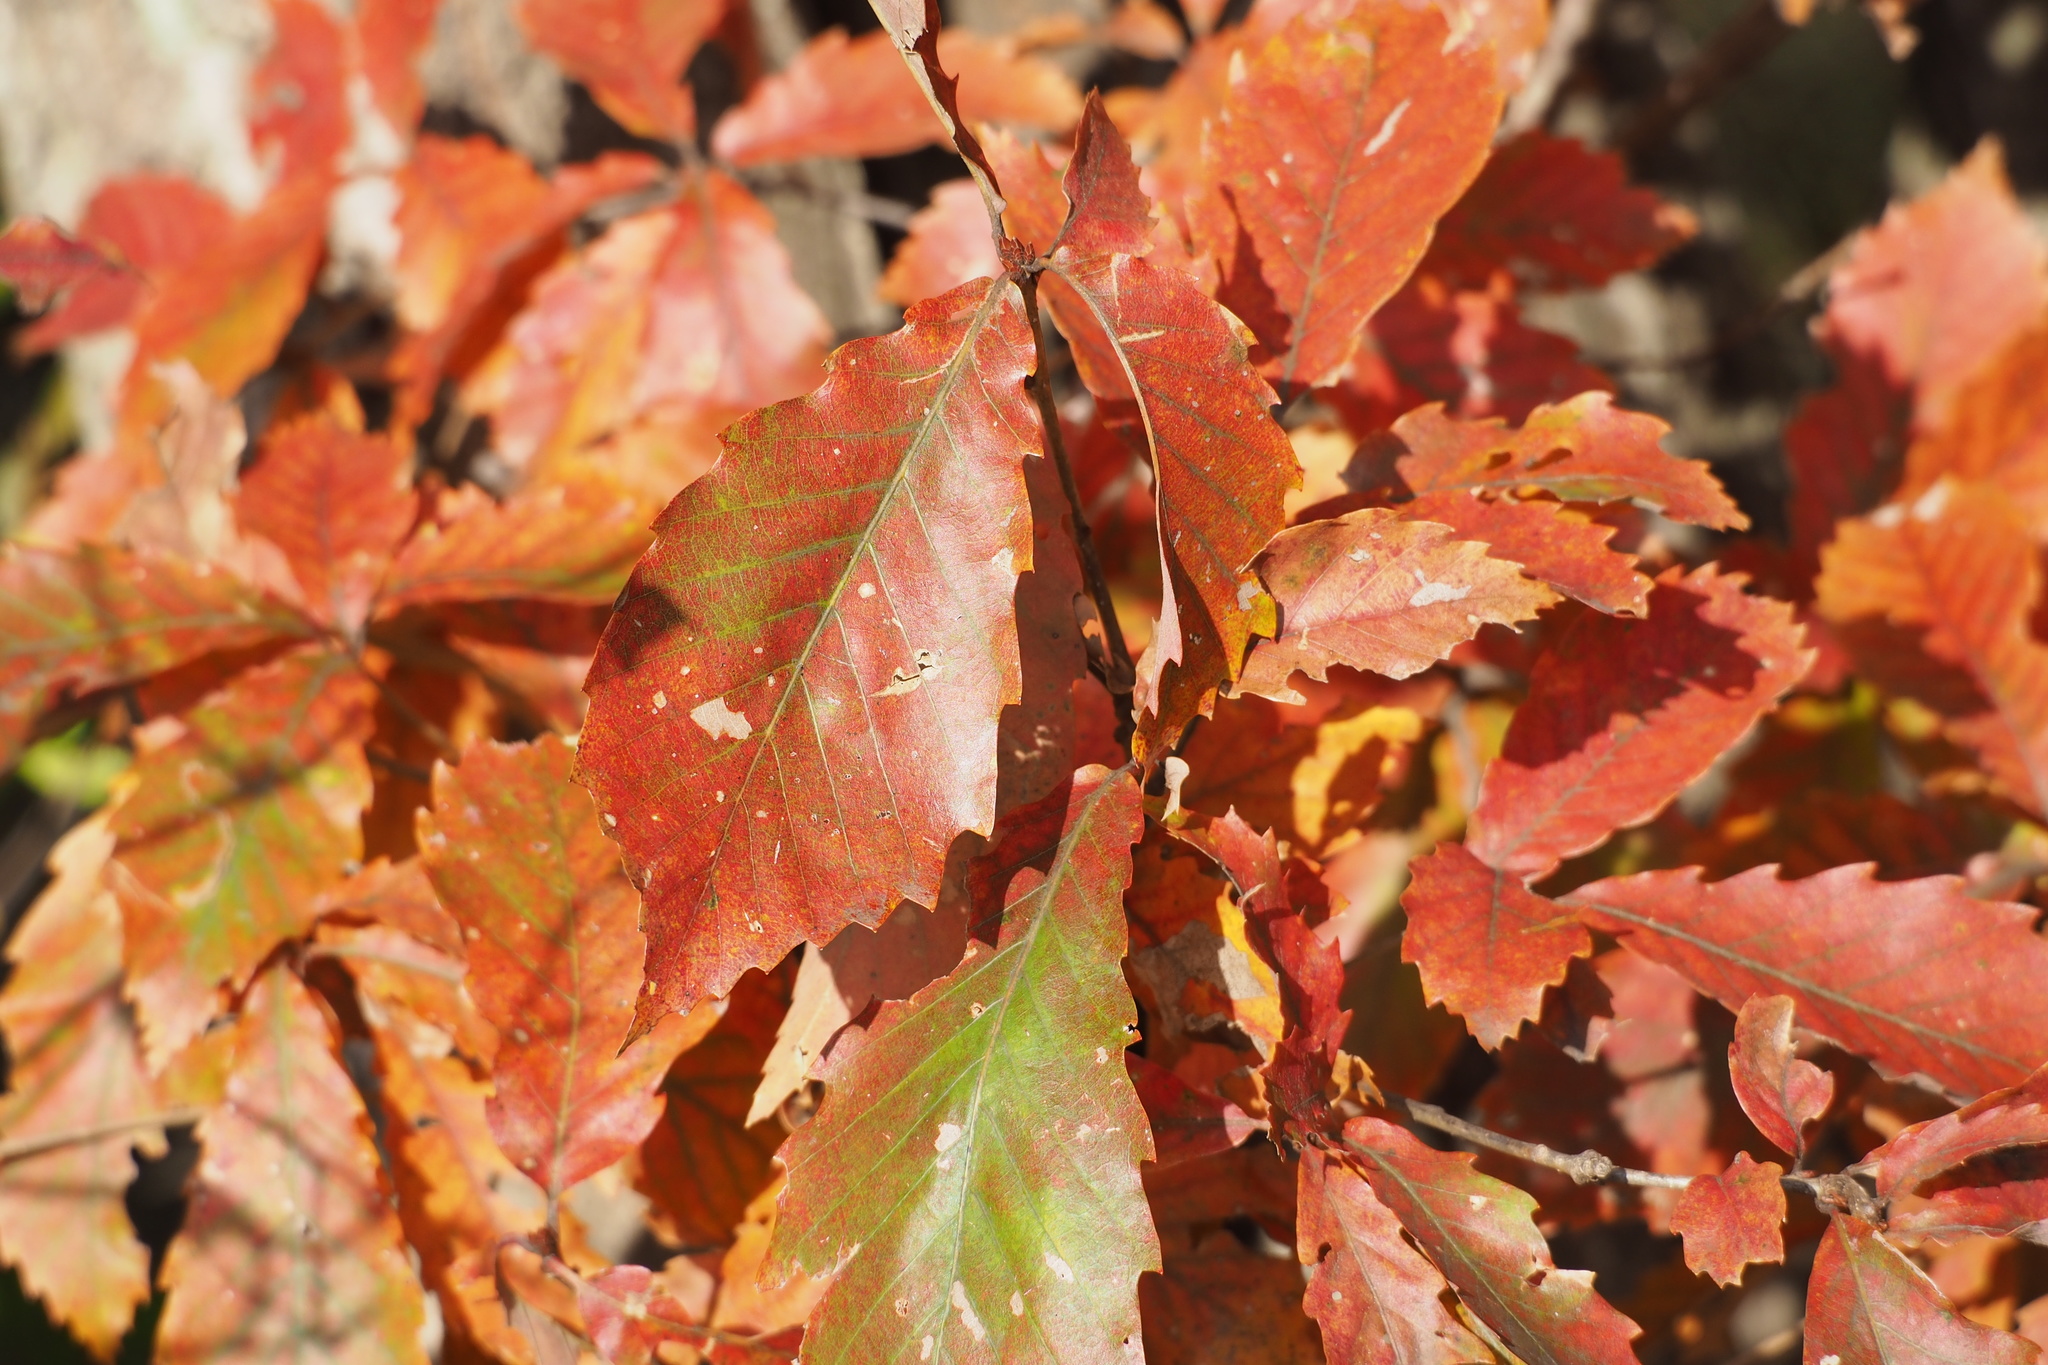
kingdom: Plantae
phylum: Tracheophyta
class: Magnoliopsida
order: Fagales
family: Fagaceae
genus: Quercus
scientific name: Quercus serrata
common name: Bao li
